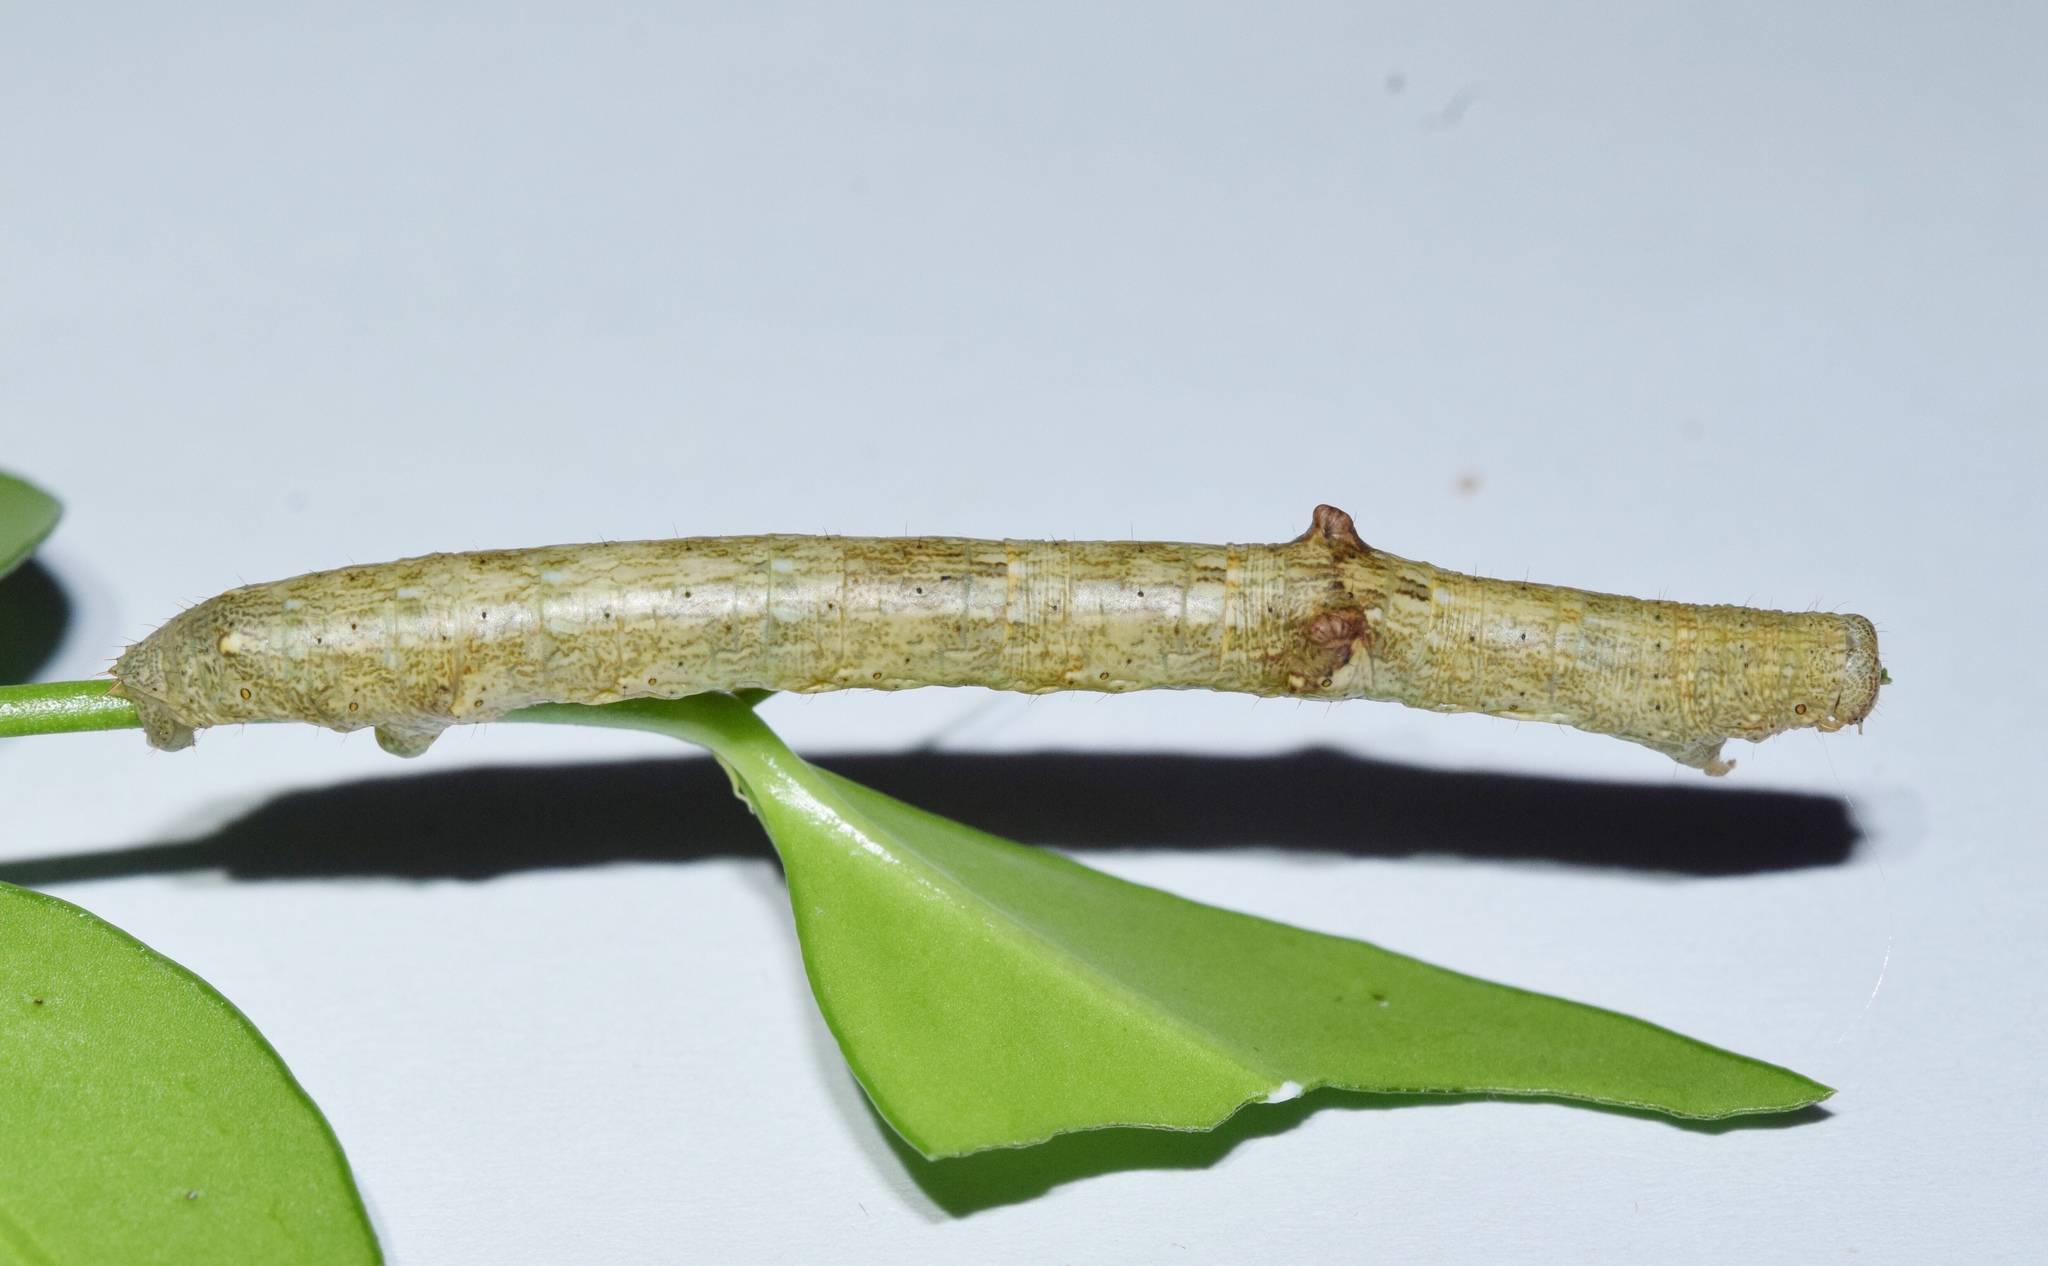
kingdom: Animalia
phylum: Arthropoda
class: Insecta
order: Lepidoptera
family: Geometridae
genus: Cleora
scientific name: Cleora munda
